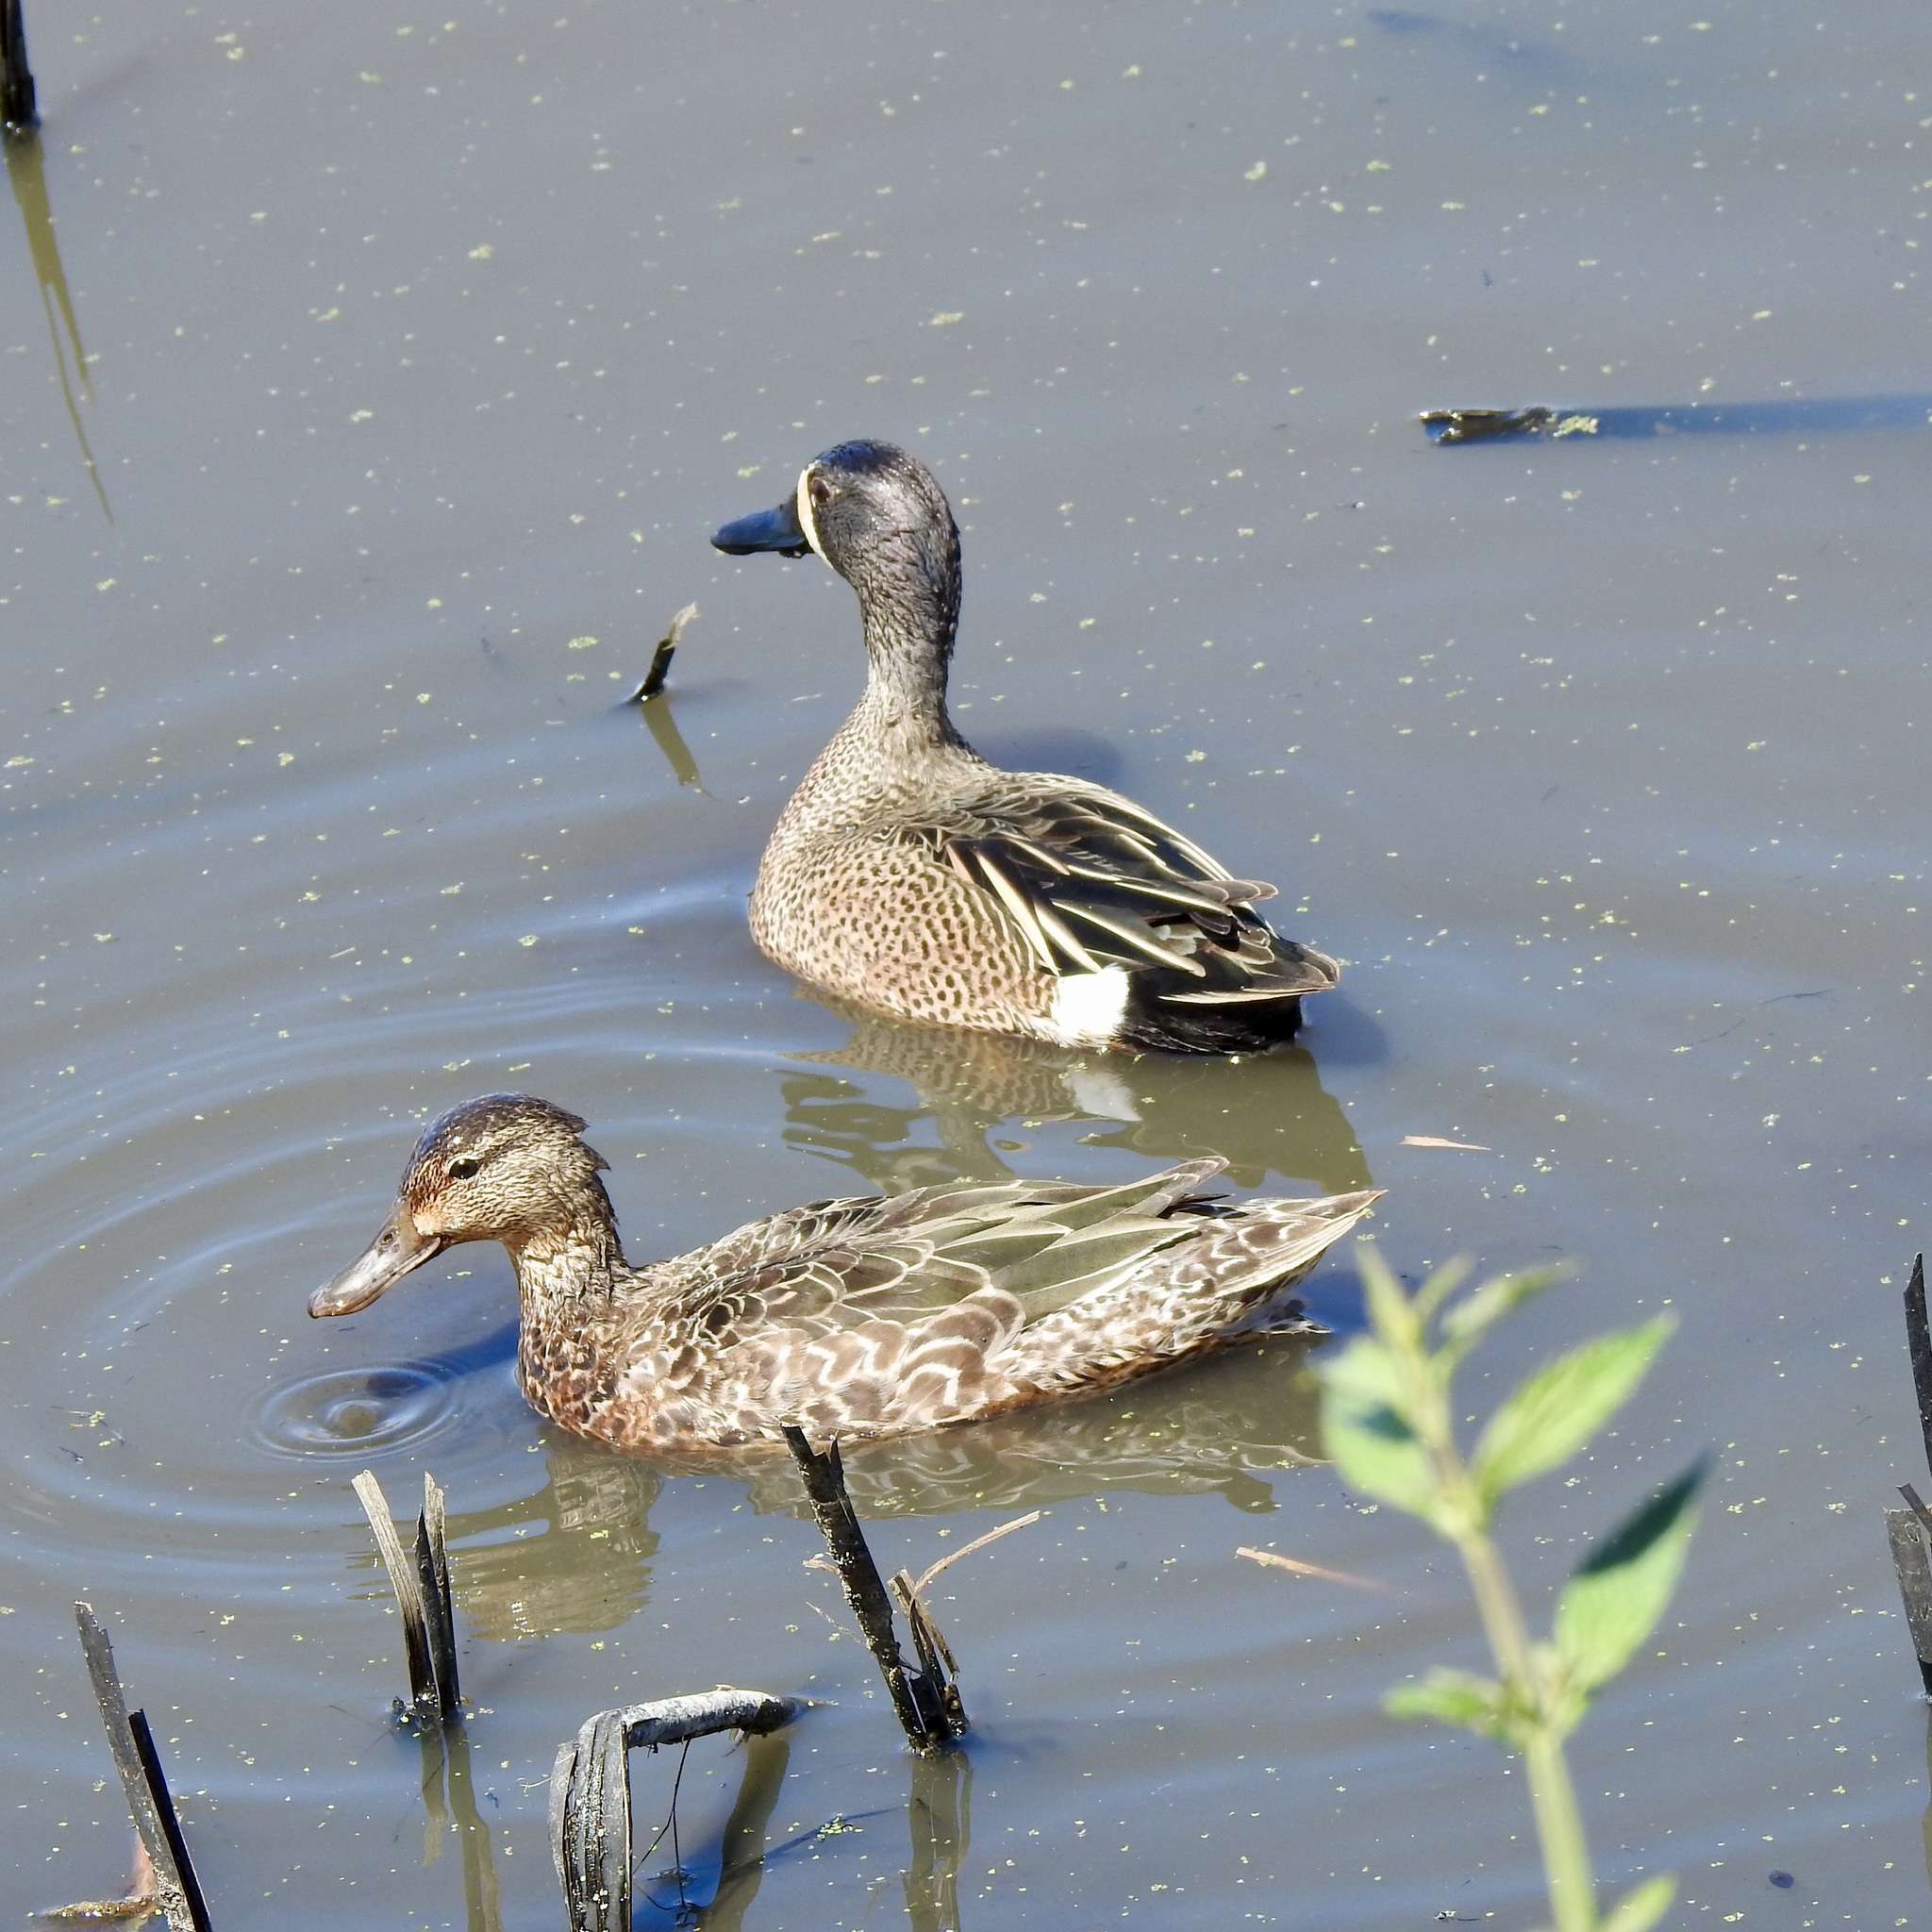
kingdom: Animalia
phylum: Chordata
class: Aves
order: Anseriformes
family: Anatidae
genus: Spatula
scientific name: Spatula discors
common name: Blue-winged teal
